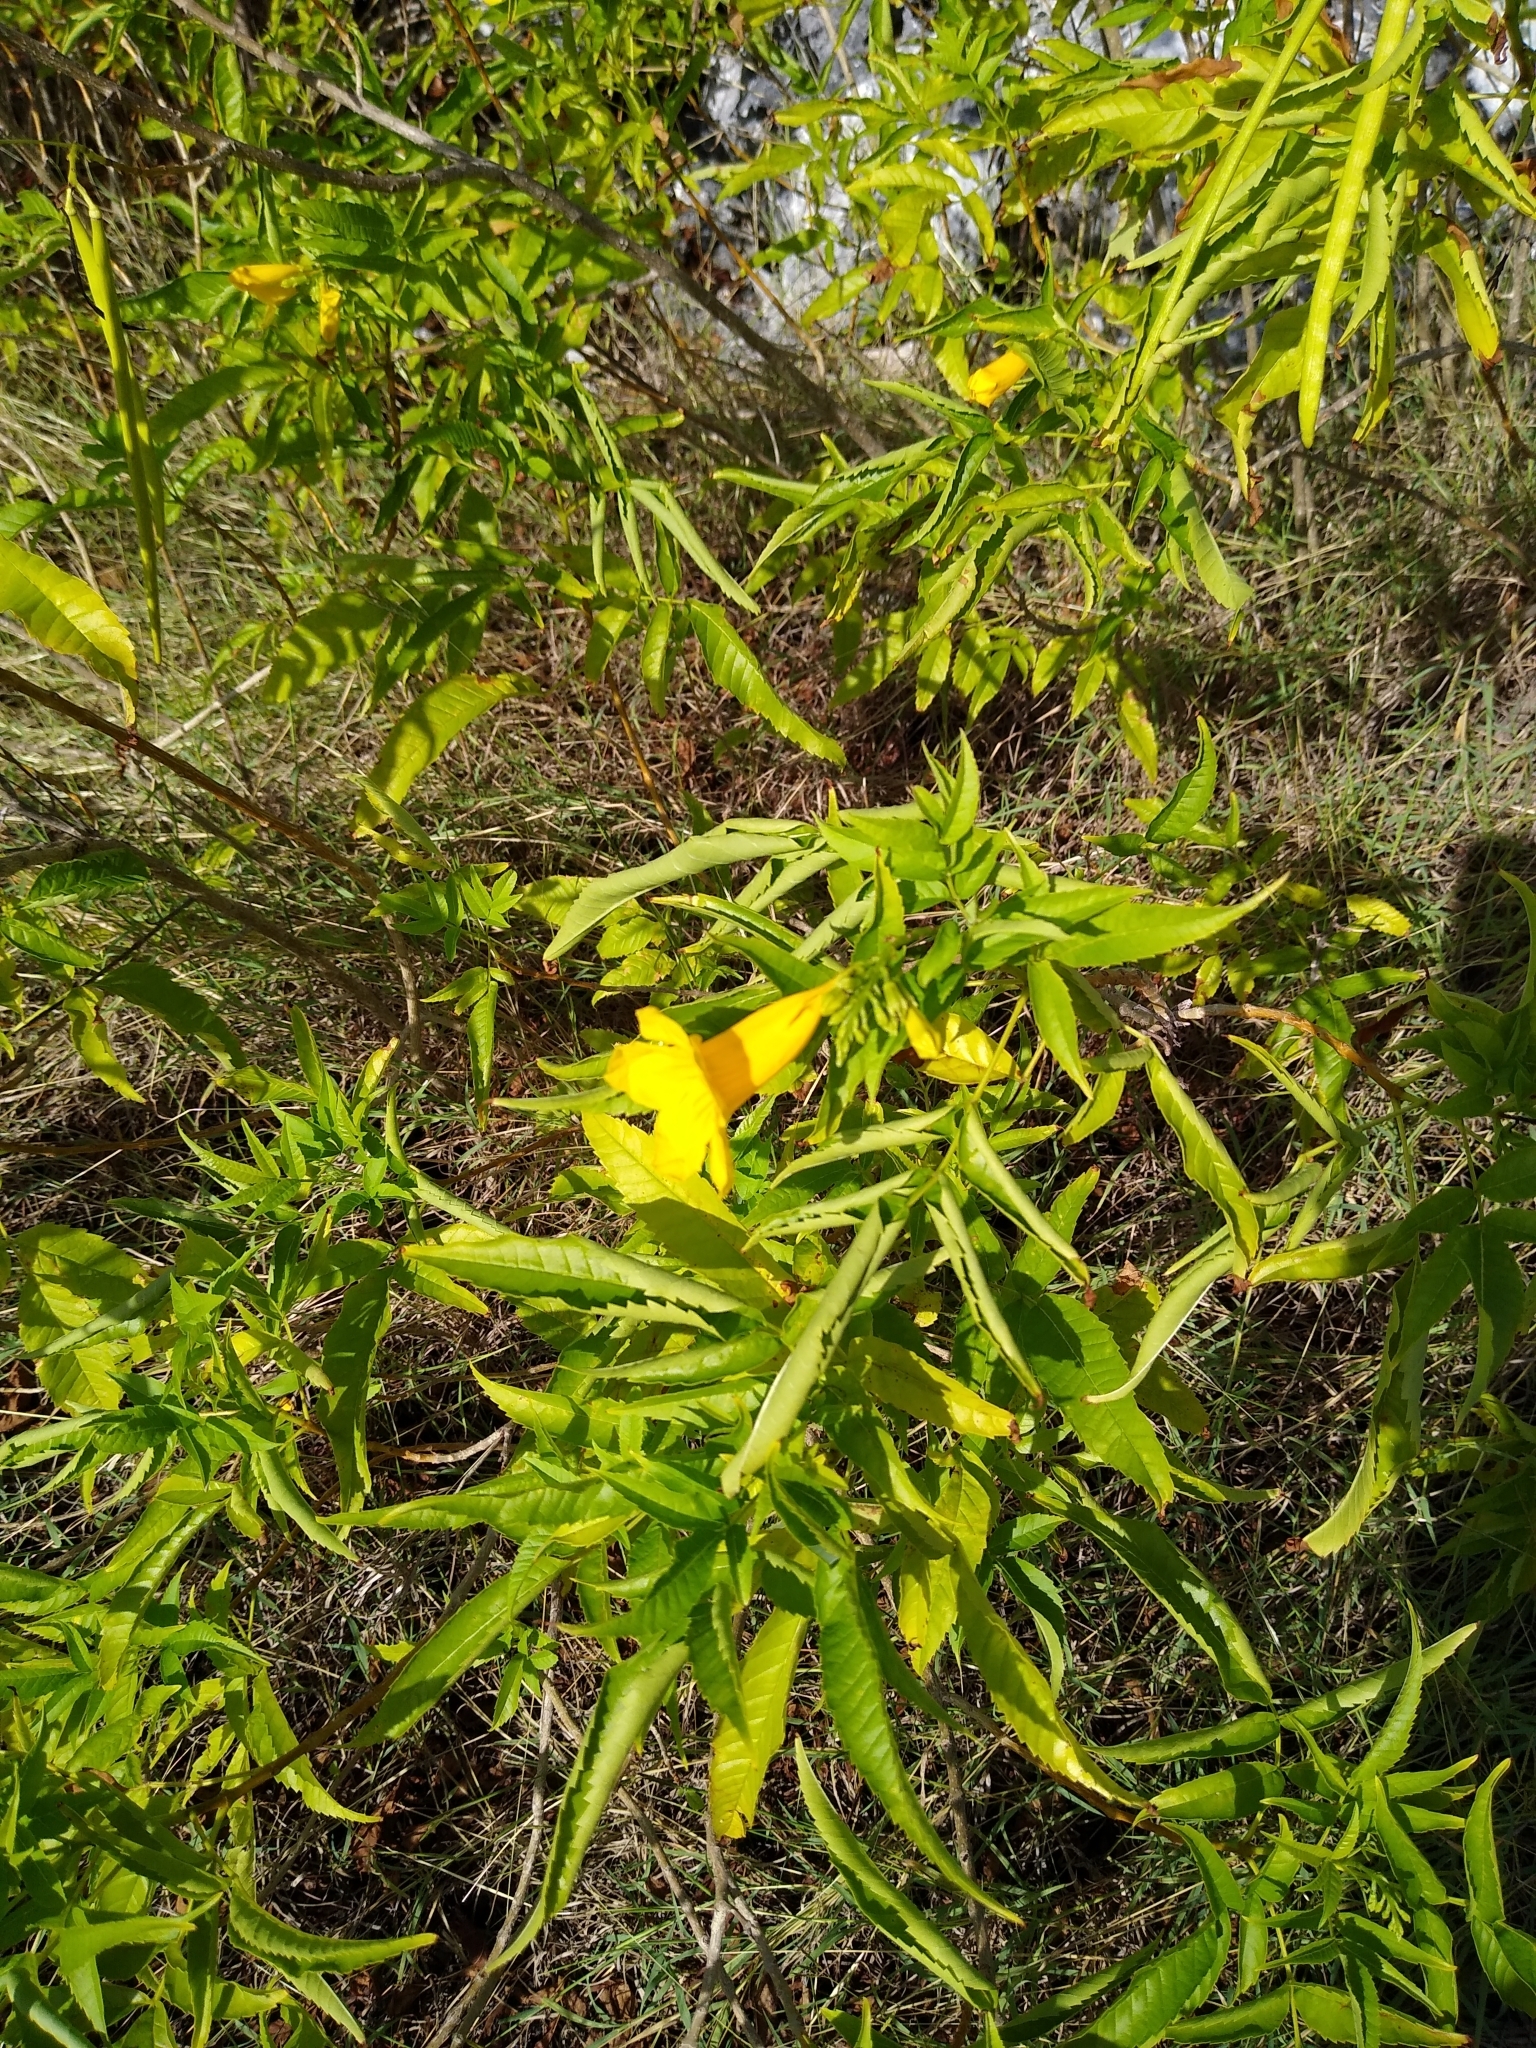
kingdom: Plantae
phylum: Tracheophyta
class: Magnoliopsida
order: Lamiales
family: Bignoniaceae
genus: Tecoma
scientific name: Tecoma stans
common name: Yellow trumpetbush
